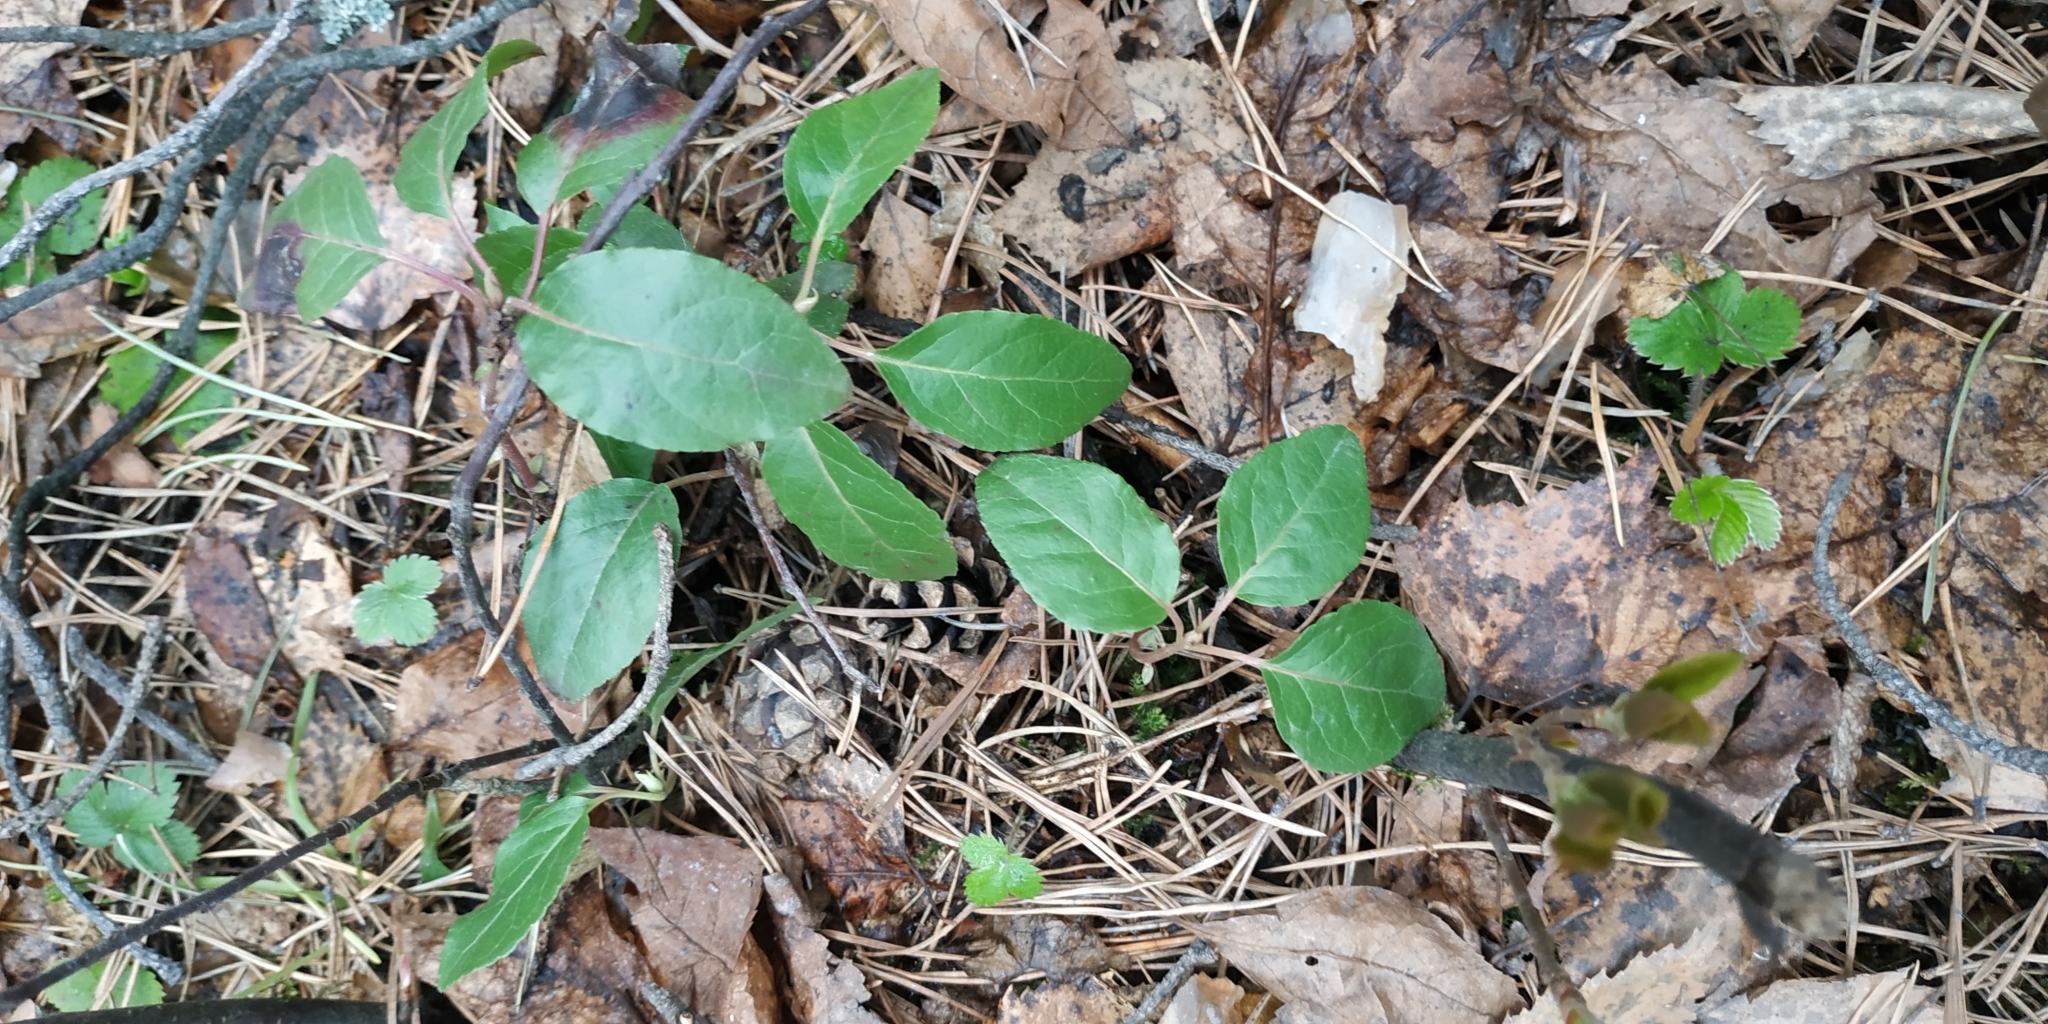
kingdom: Plantae
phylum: Tracheophyta
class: Magnoliopsida
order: Ericales
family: Ericaceae
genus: Orthilia
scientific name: Orthilia secunda
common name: One-sided orthilia
